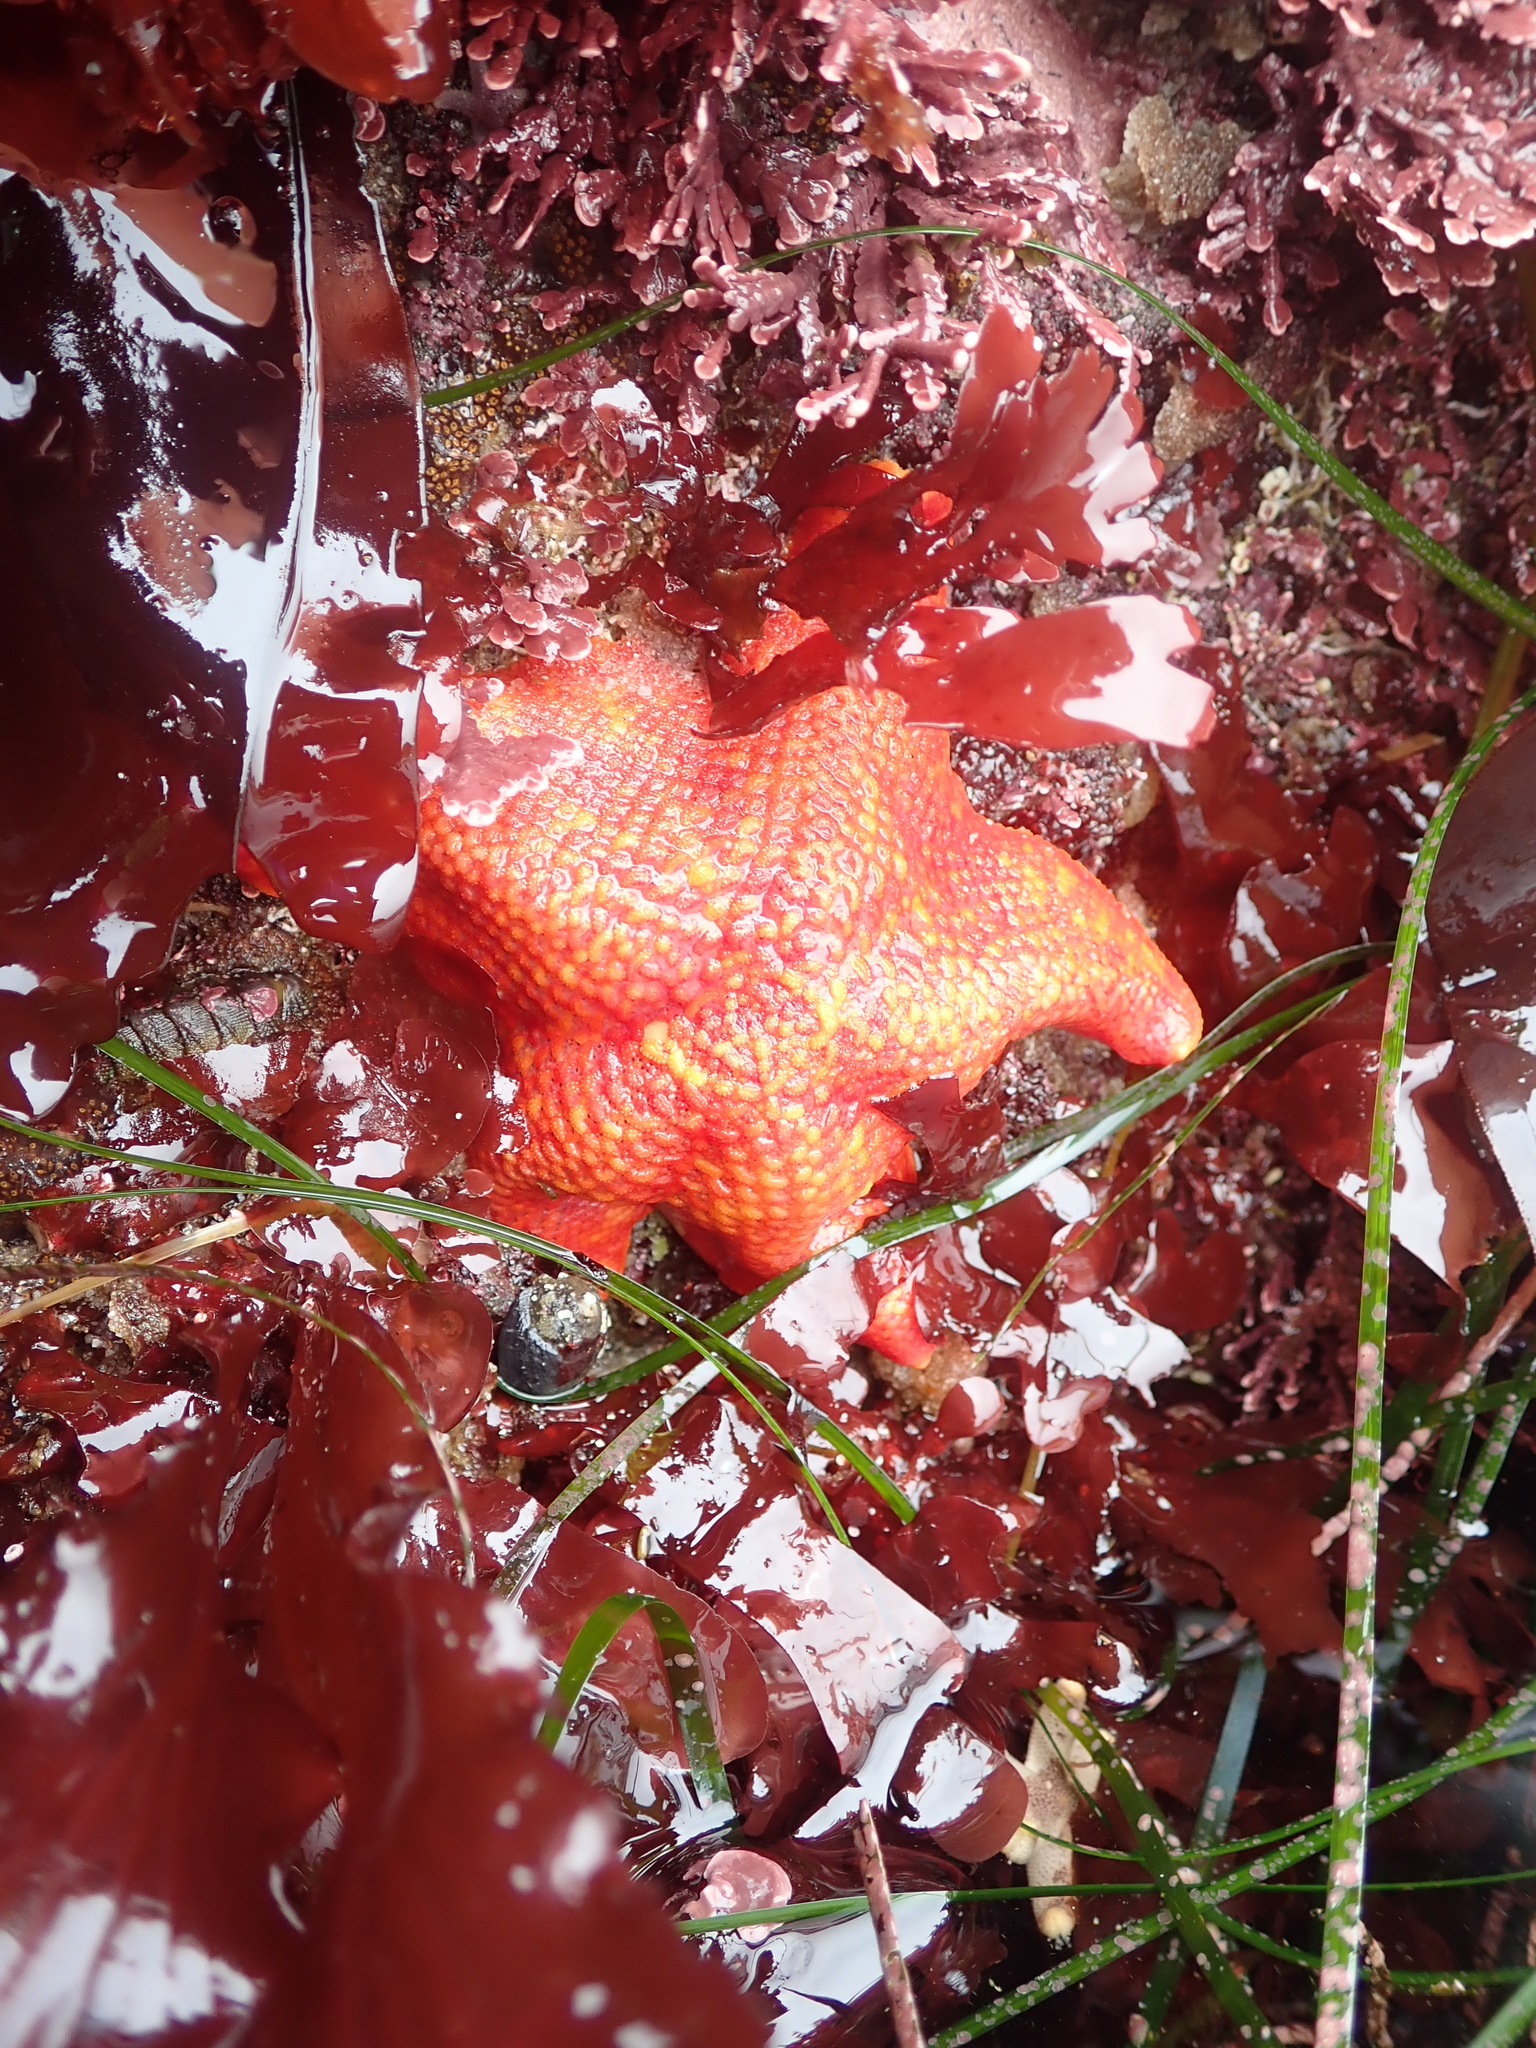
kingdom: Animalia
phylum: Echinodermata
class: Asteroidea
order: Valvatida
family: Asterinidae
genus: Patiria
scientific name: Patiria miniata
